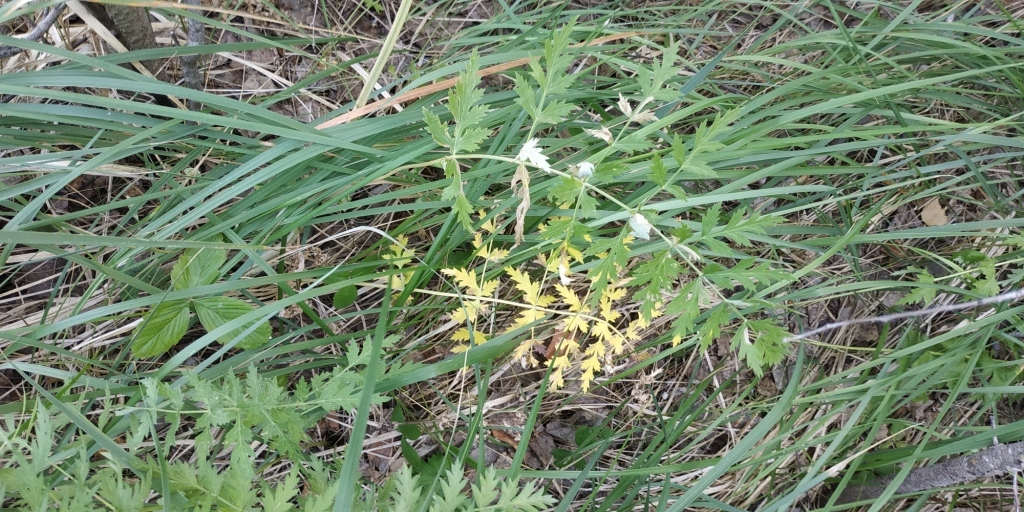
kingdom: Plantae
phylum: Tracheophyta
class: Magnoliopsida
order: Apiales
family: Apiaceae
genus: Seseli
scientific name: Seseli libanotis
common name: Mooncarrot
